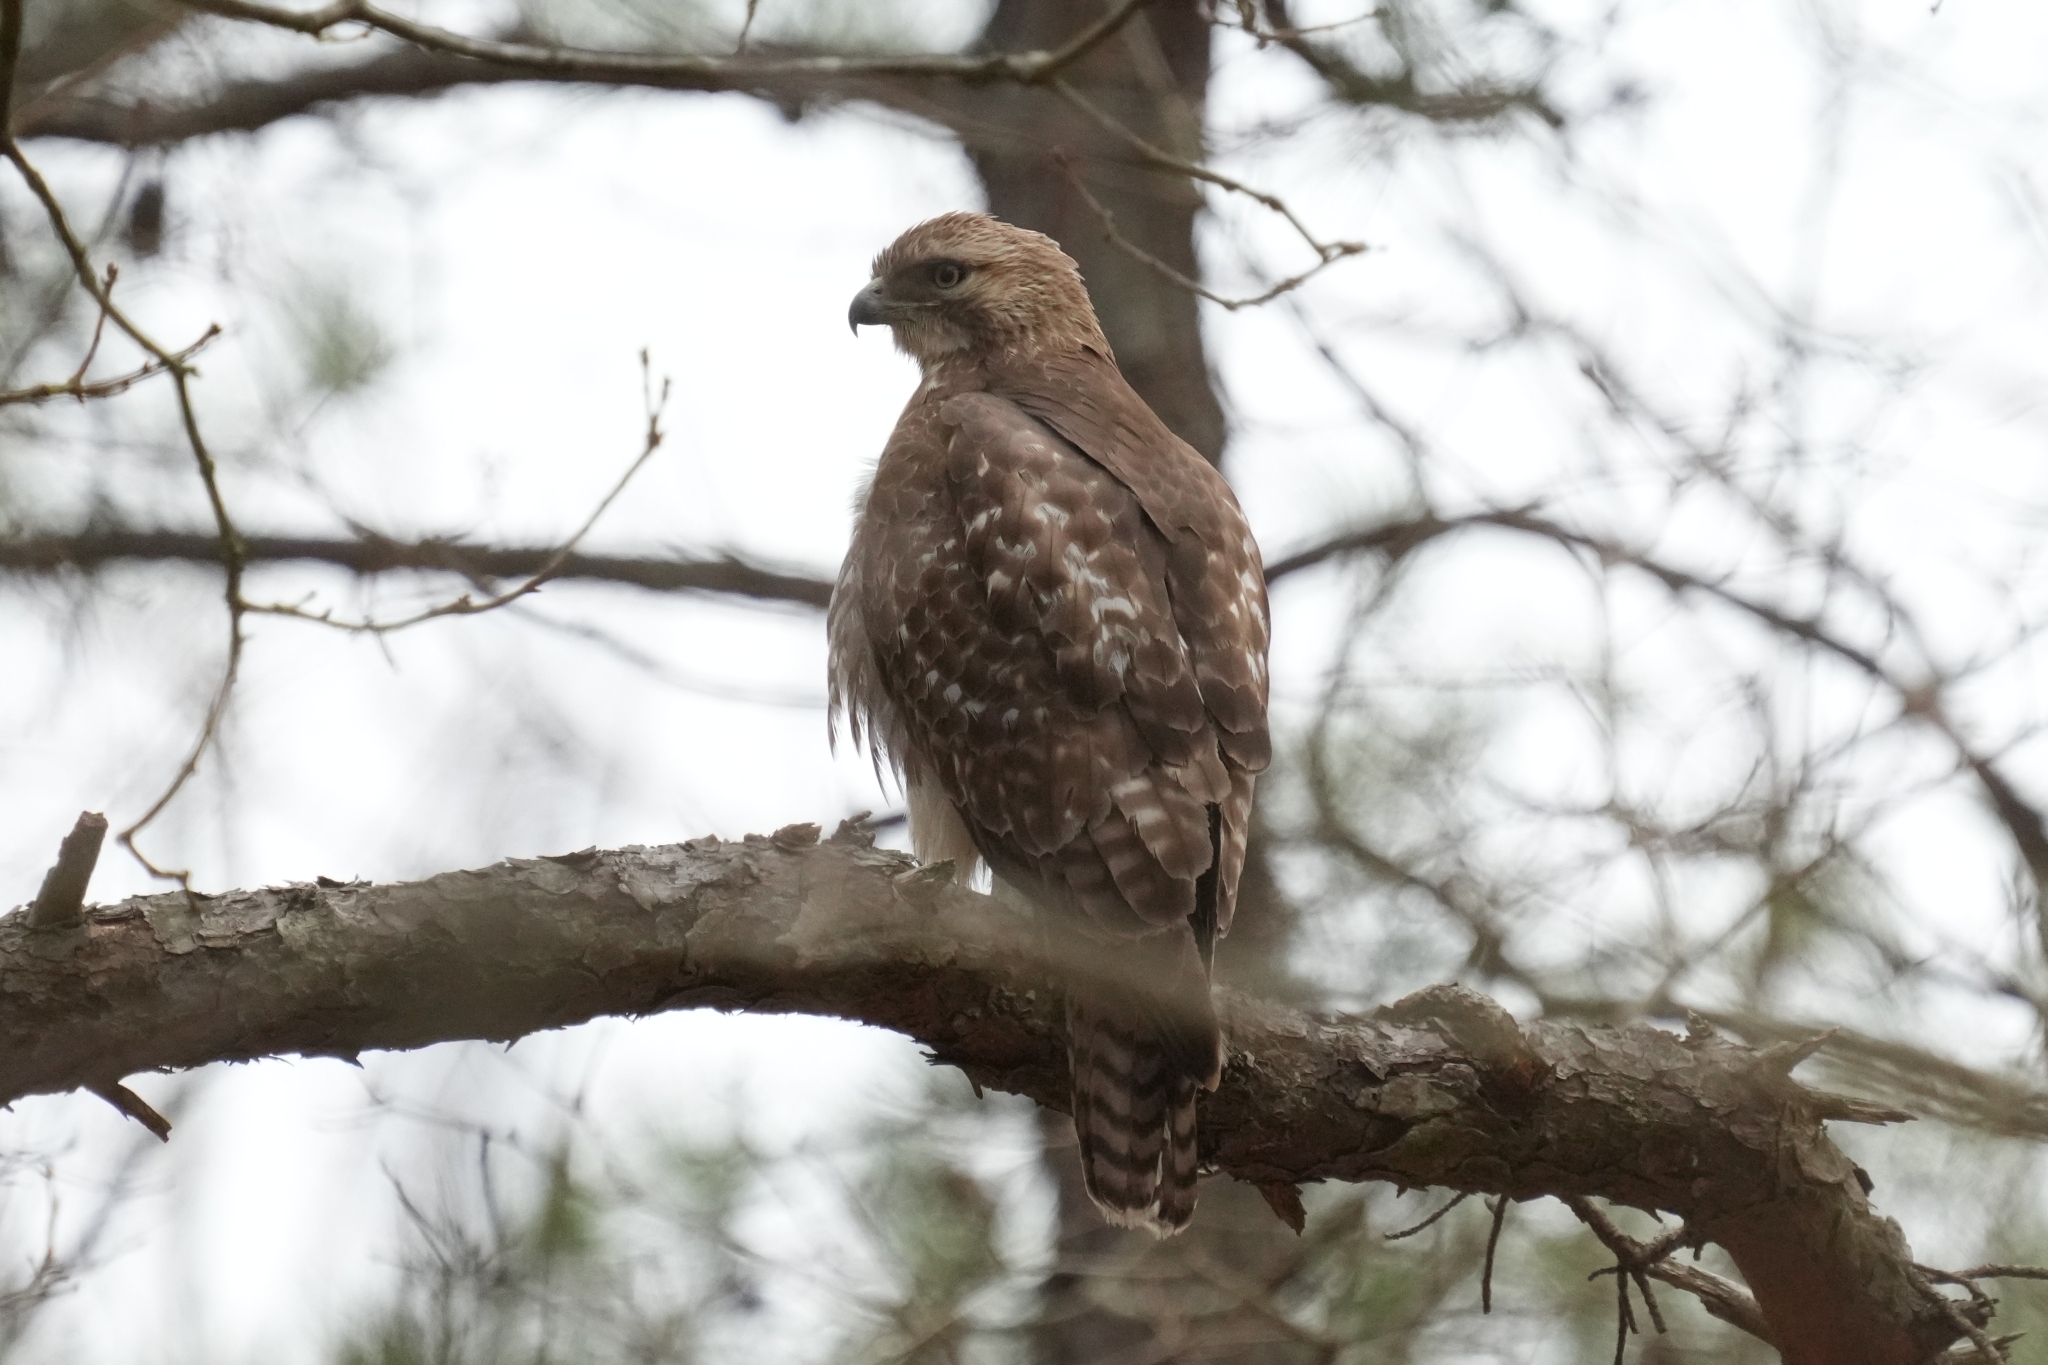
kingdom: Animalia
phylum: Chordata
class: Aves
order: Accipitriformes
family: Accipitridae
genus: Buteo
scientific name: Buteo jamaicensis
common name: Red-tailed hawk
